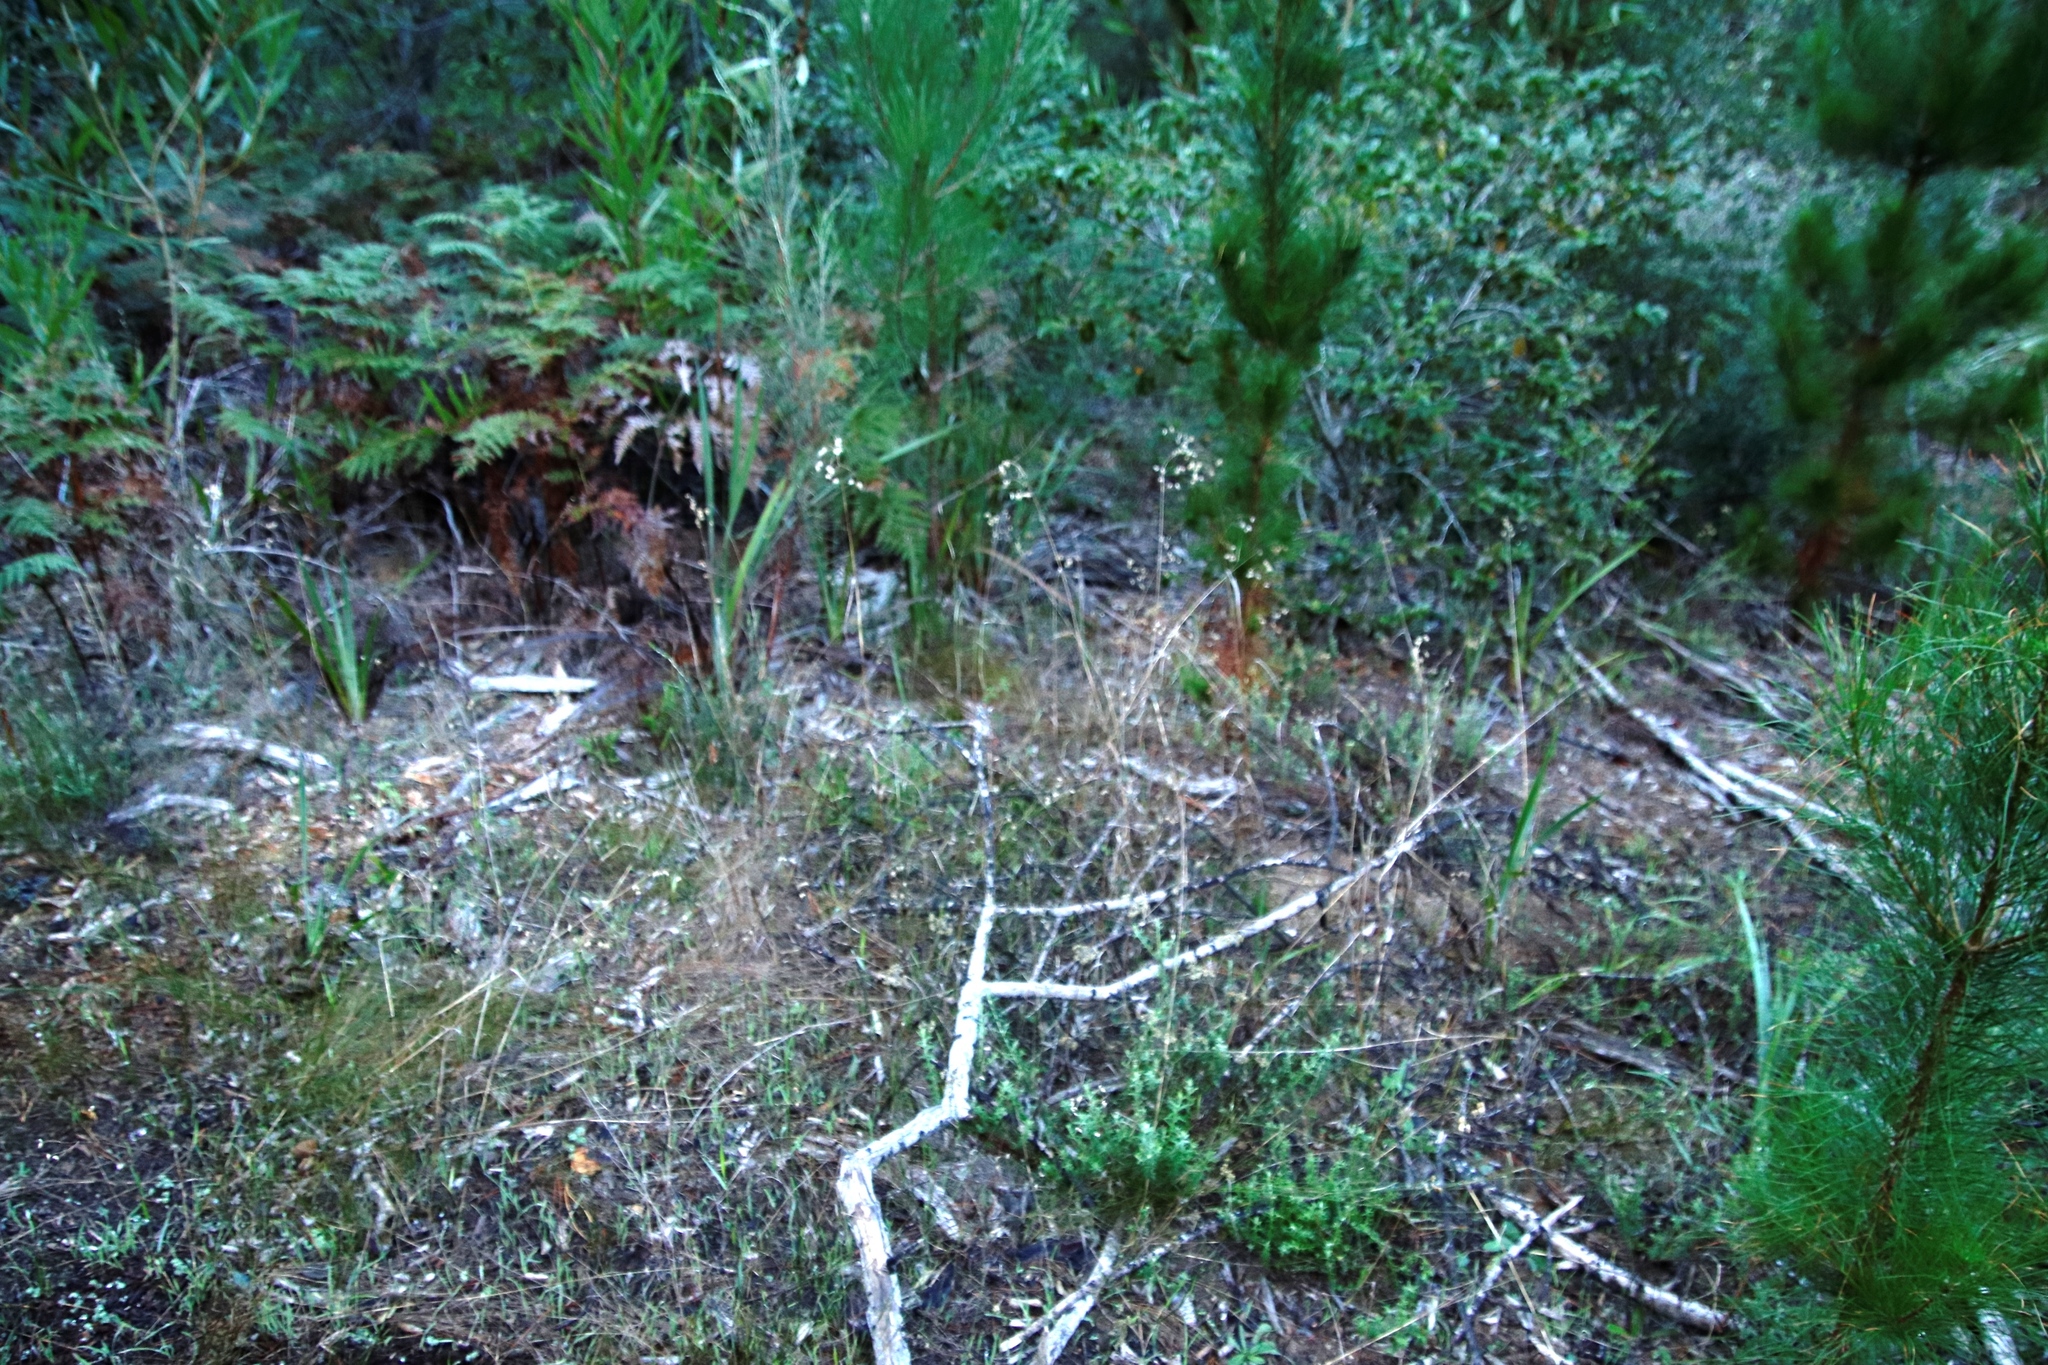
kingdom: Plantae
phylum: Tracheophyta
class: Liliopsida
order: Poales
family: Poaceae
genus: Briza
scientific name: Briza maxima
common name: Big quakinggrass
